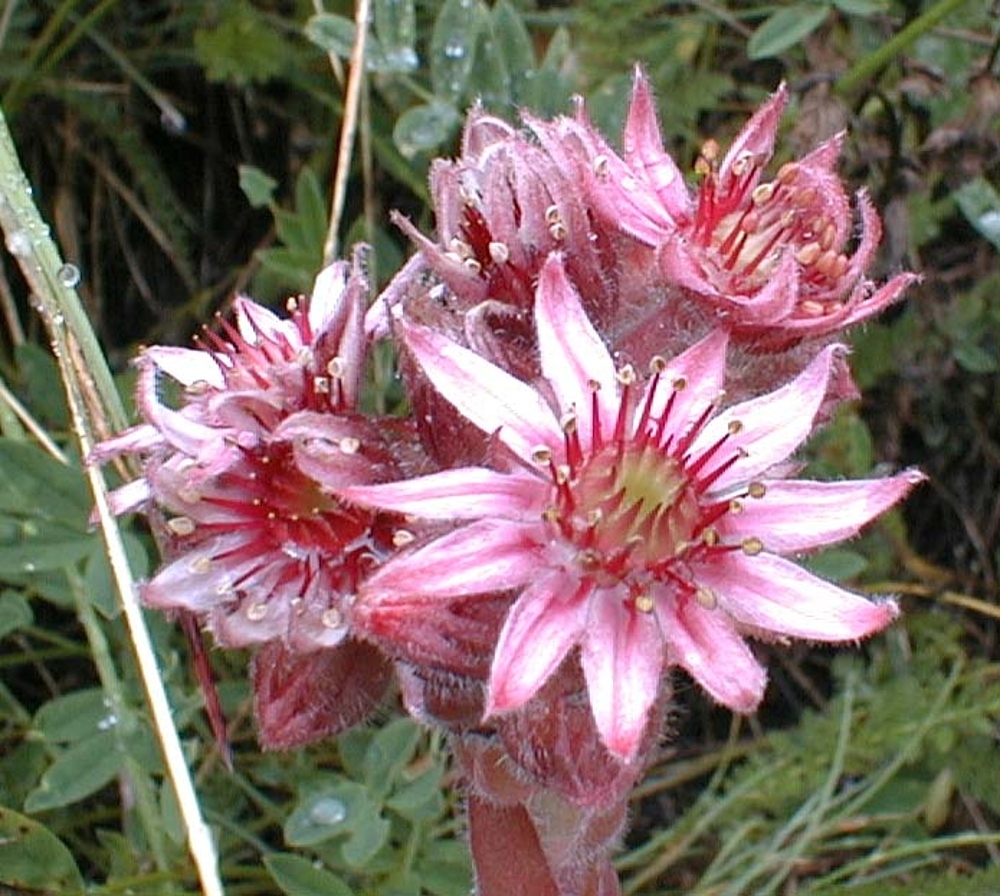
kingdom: Plantae
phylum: Tracheophyta
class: Magnoliopsida
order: Saxifragales
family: Crassulaceae
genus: Sempervivum
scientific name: Sempervivum tectorum
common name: House-leek
